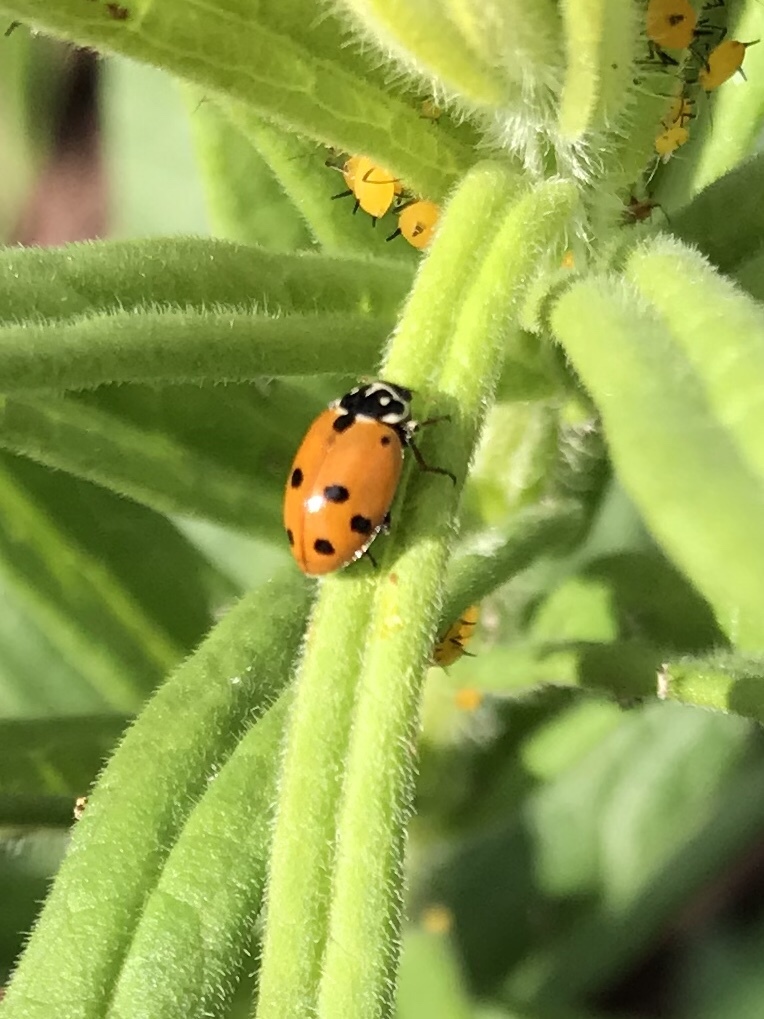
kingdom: Animalia
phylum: Arthropoda
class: Insecta
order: Coleoptera
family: Coccinellidae
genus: Hippodamia
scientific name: Hippodamia variegata
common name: Ladybird beetle
